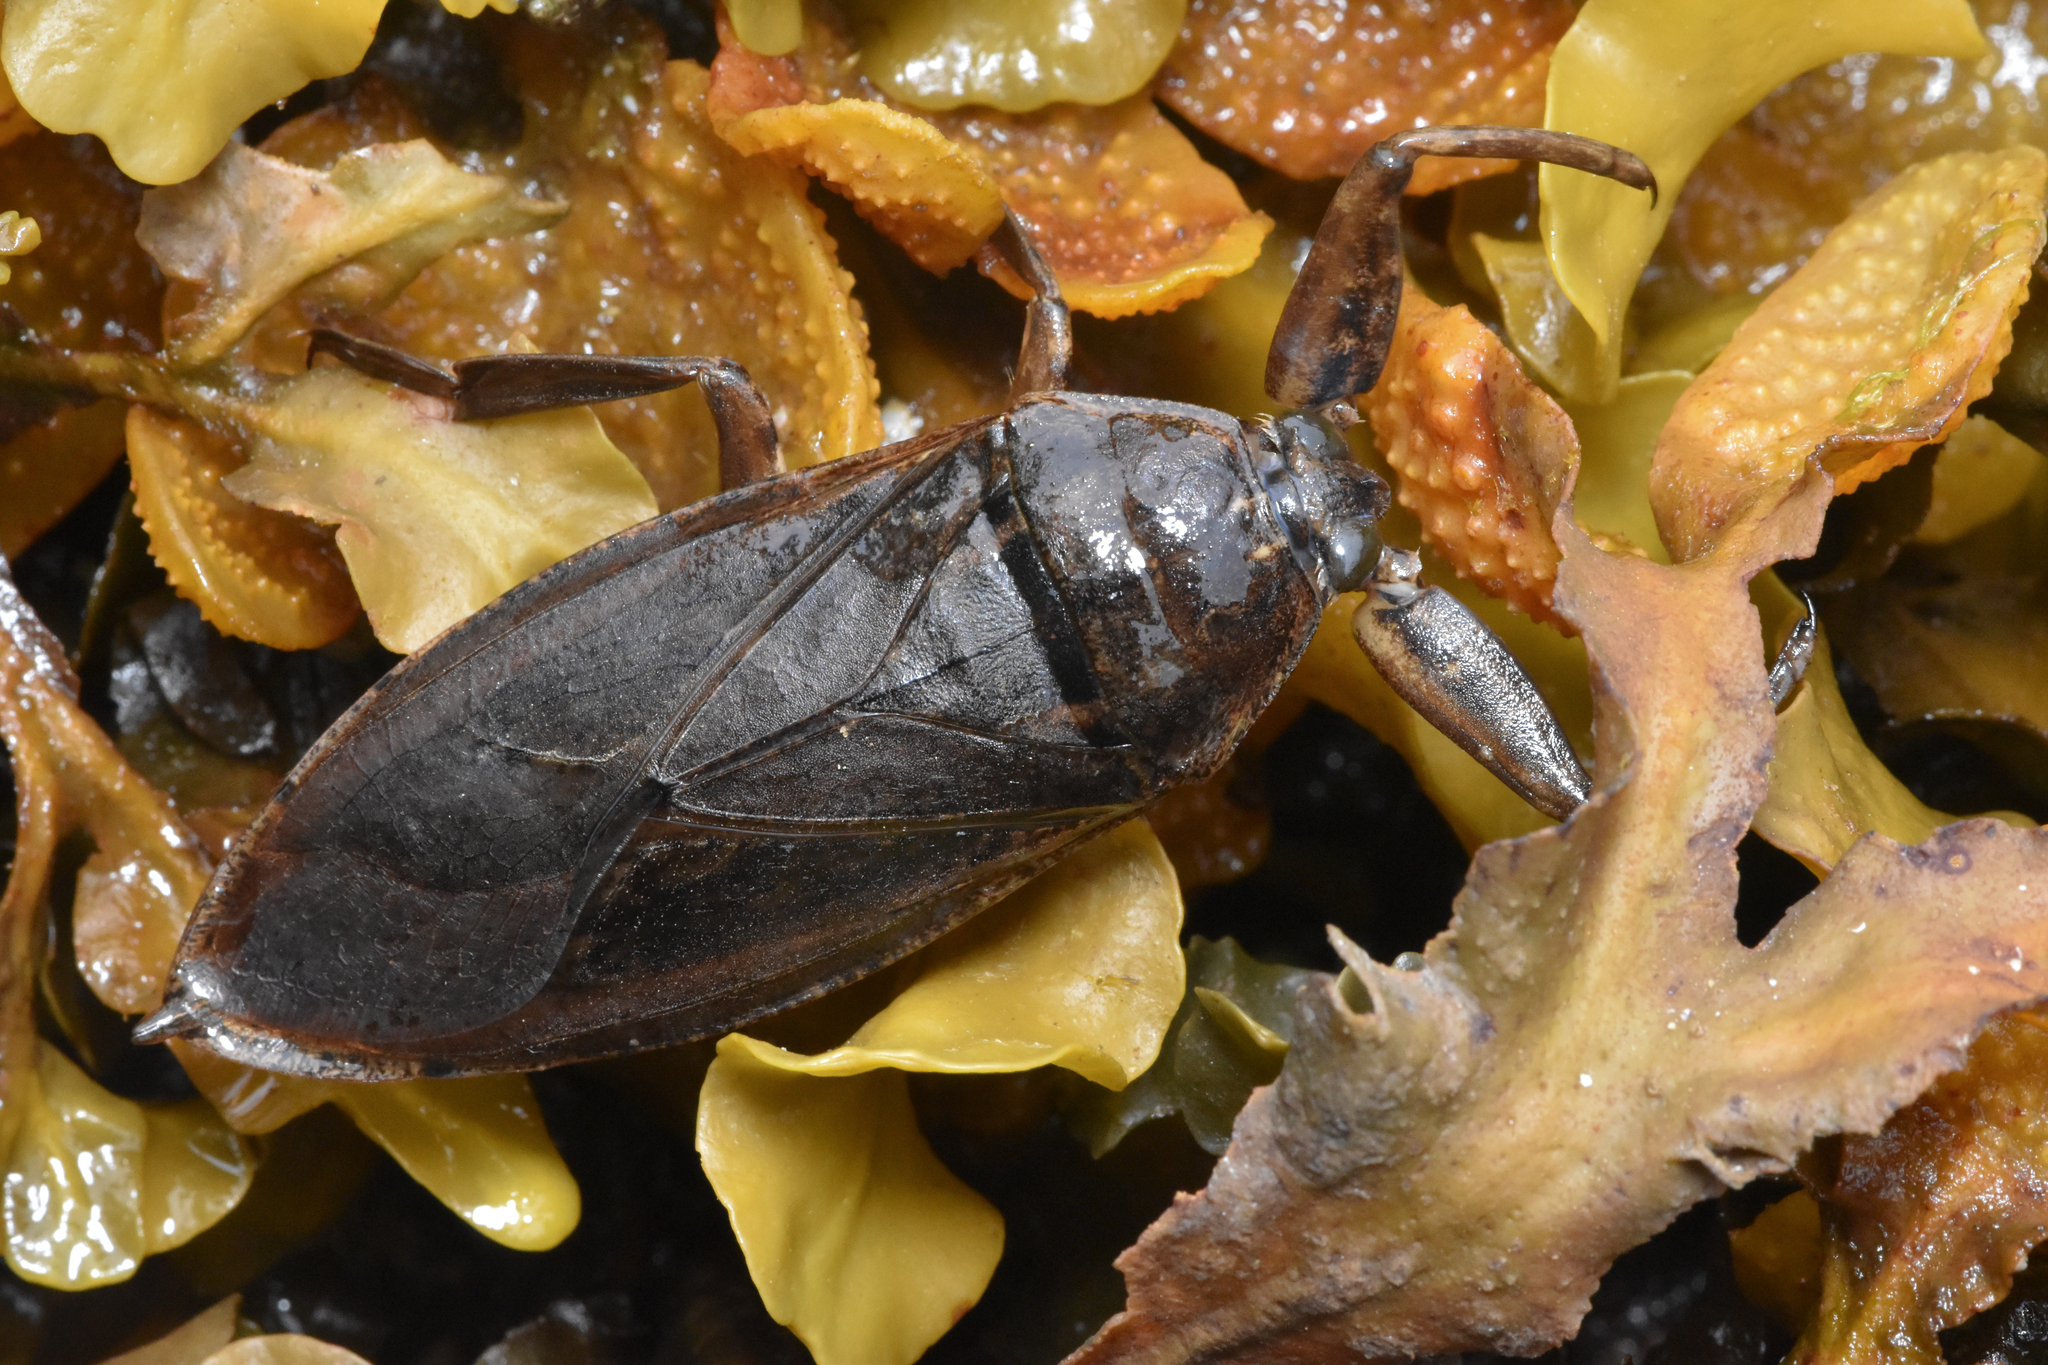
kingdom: Animalia
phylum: Arthropoda
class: Insecta
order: Hemiptera
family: Belostomatidae
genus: Lethocerus
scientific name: Lethocerus americanus
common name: Giant water bug
